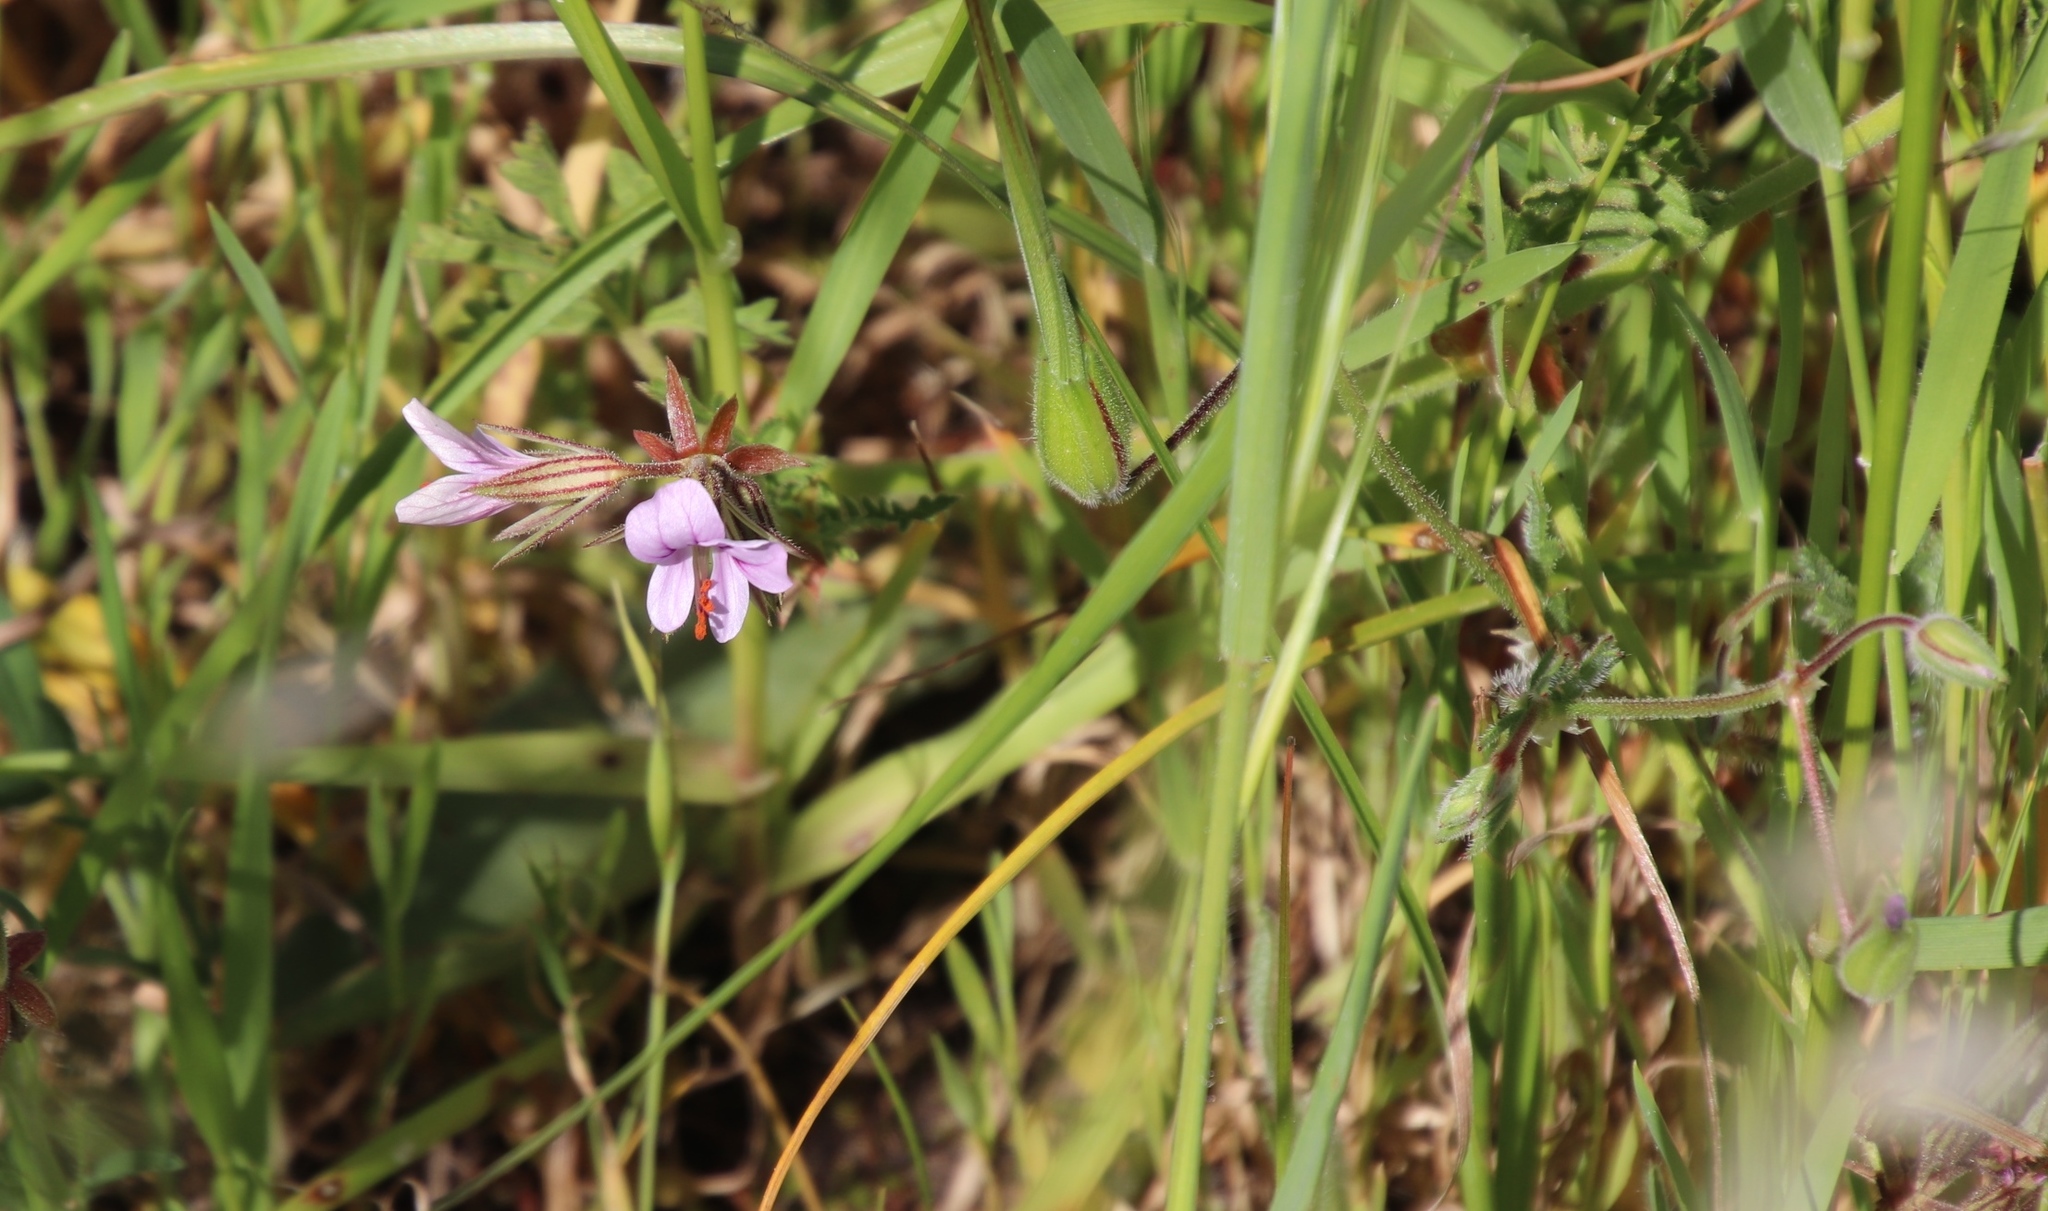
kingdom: Plantae
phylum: Tracheophyta
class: Magnoliopsida
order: Geraniales
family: Geraniaceae
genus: Pelargonium
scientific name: Pelargonium myrrhifolium
